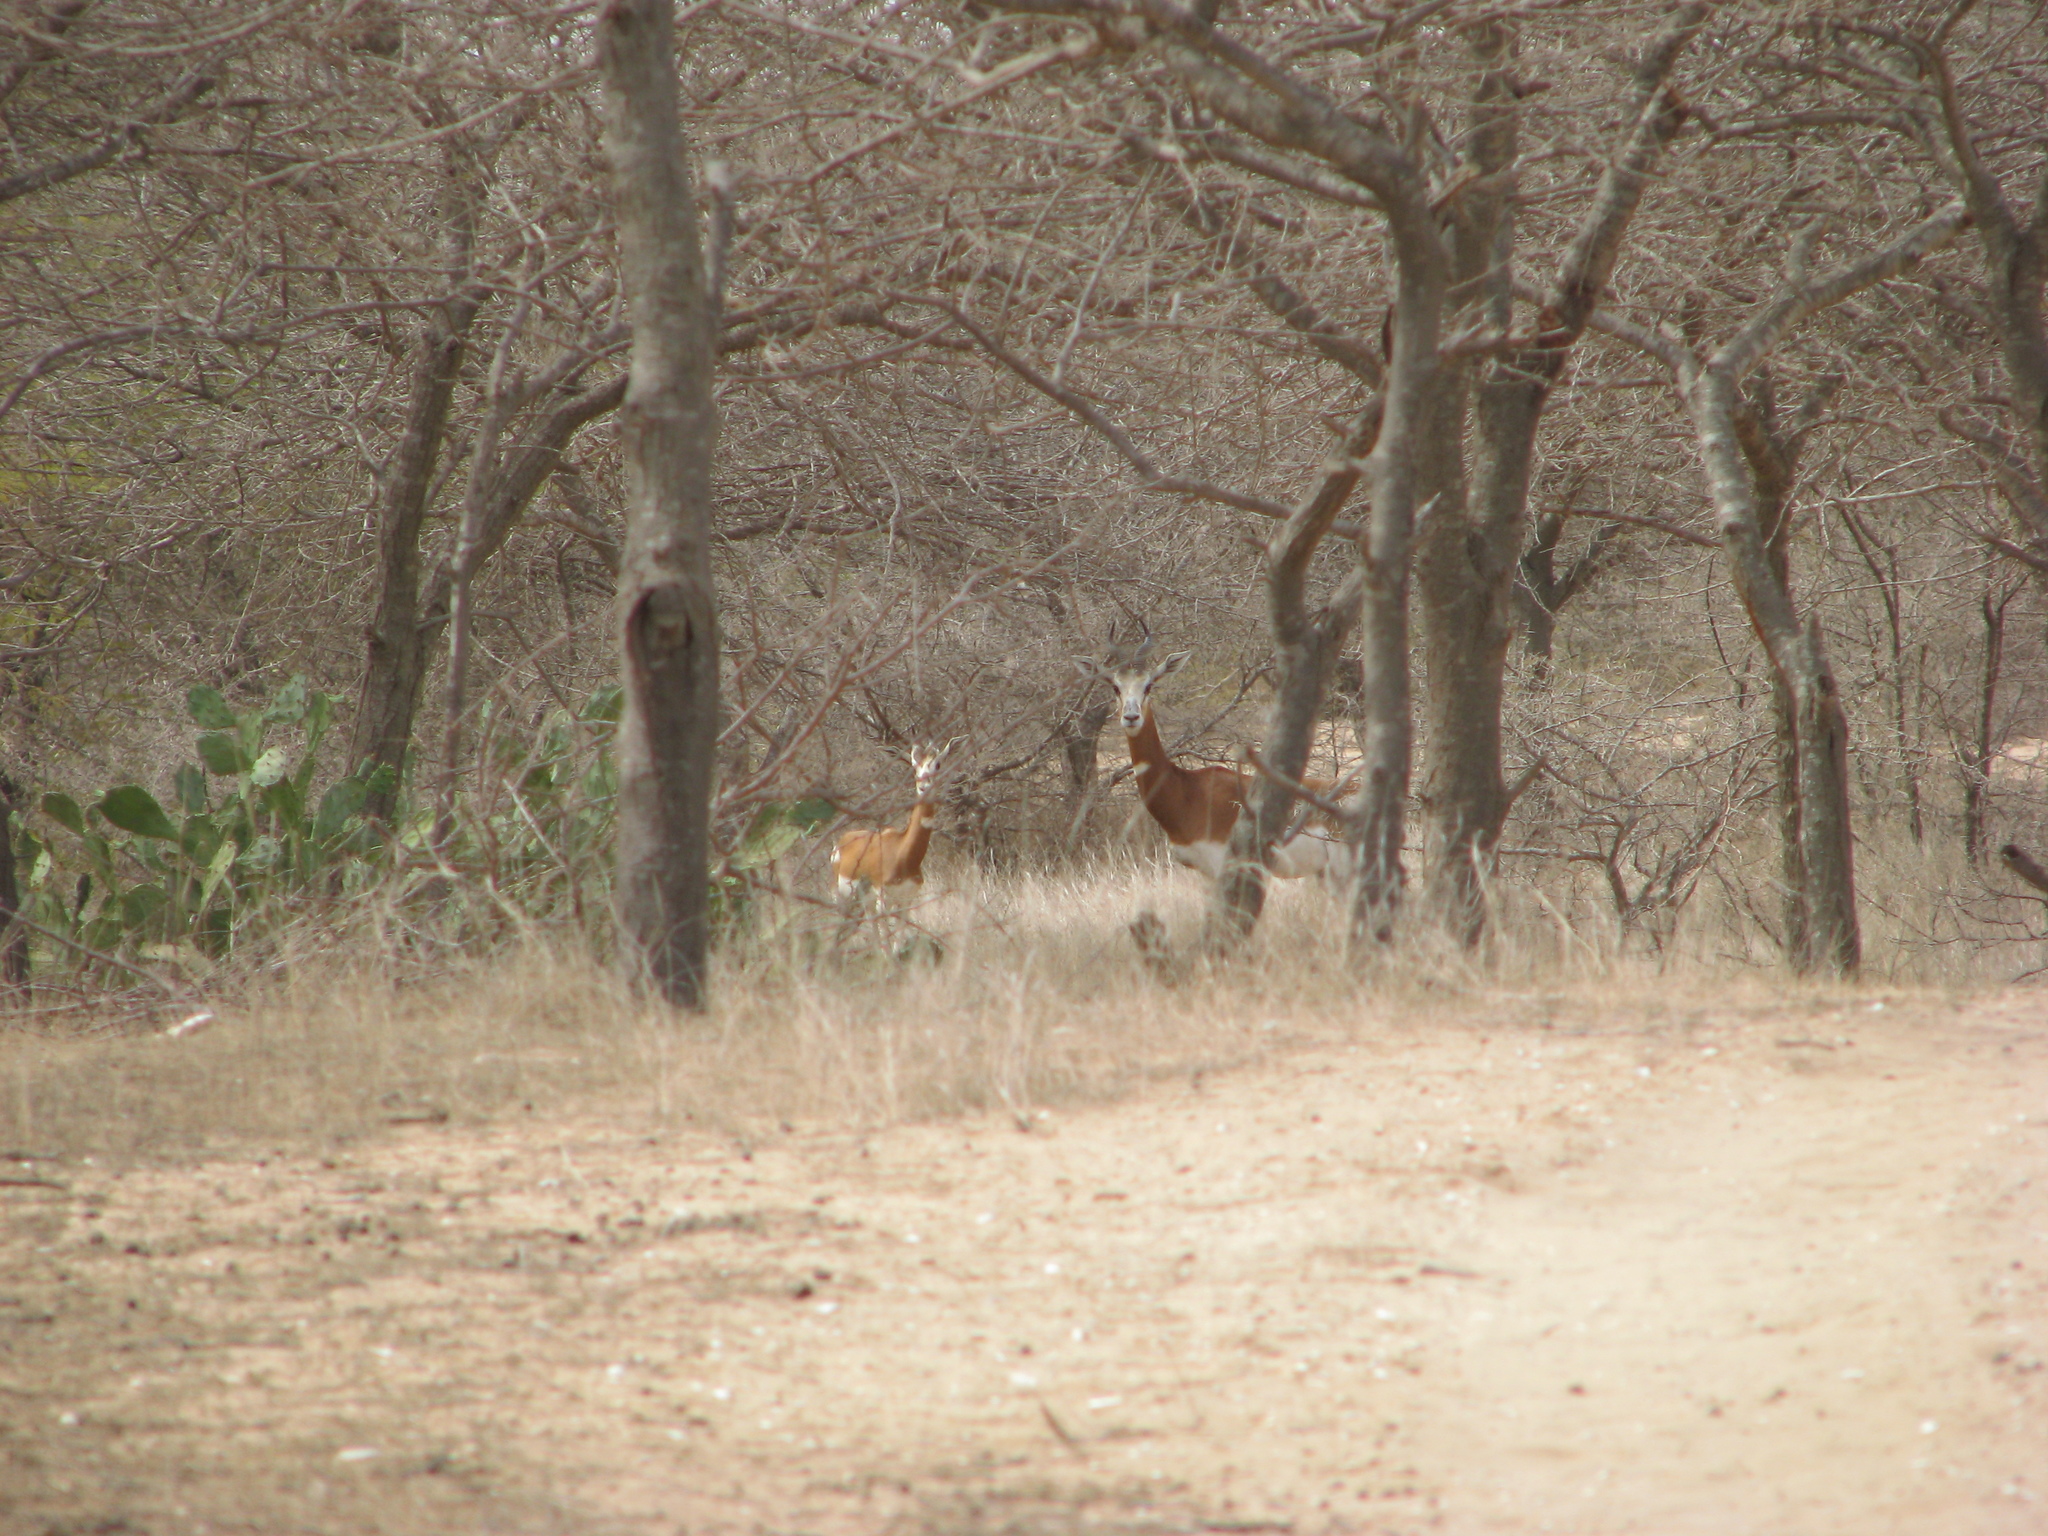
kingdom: Animalia
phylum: Chordata
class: Mammalia
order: Artiodactyla
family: Bovidae
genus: Nanger
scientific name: Nanger dama
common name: Dama gazelle
